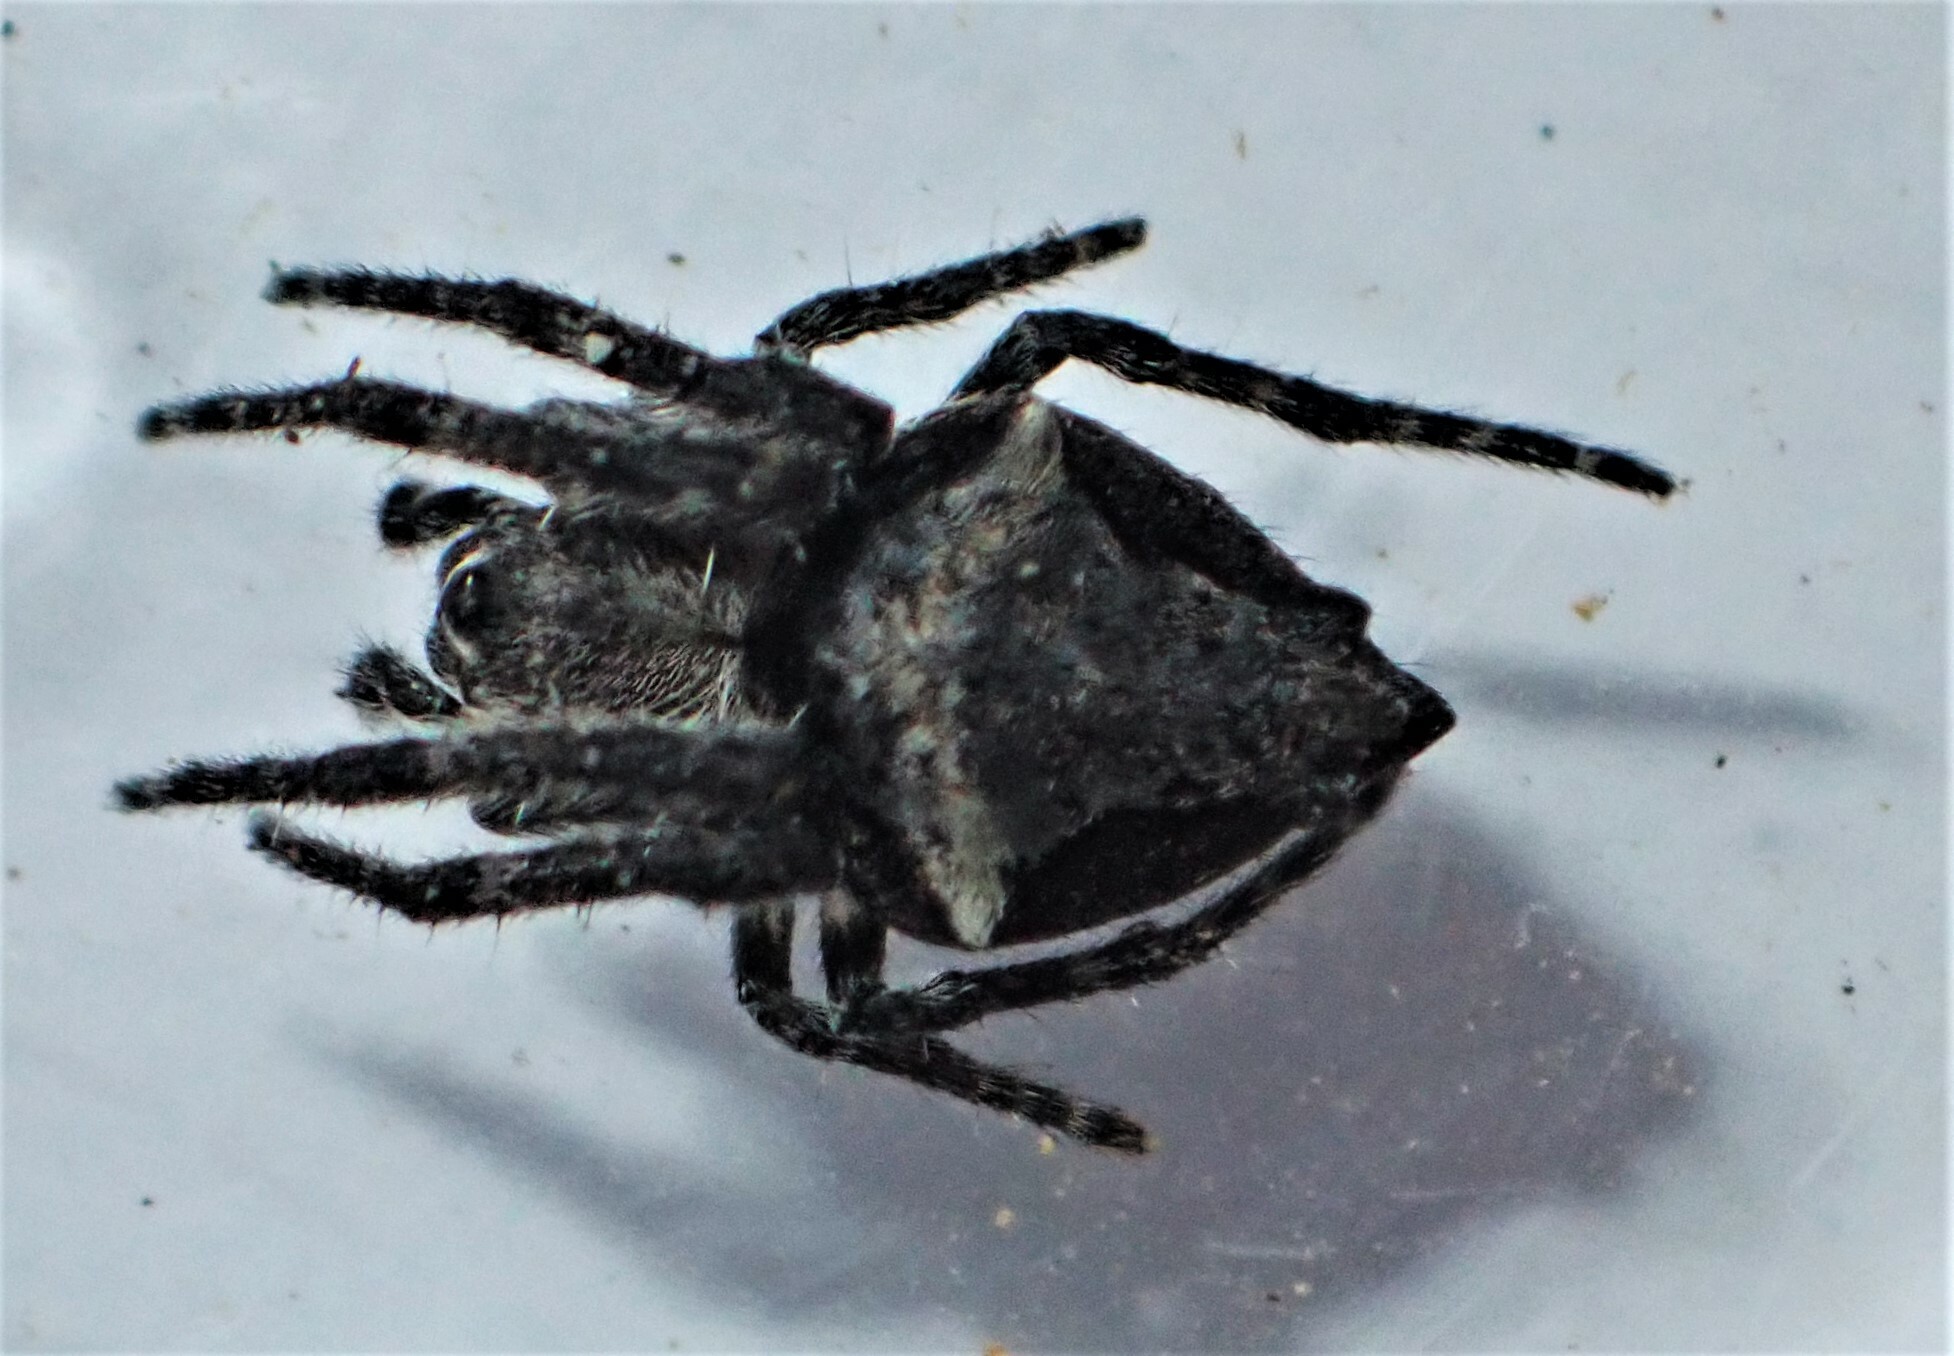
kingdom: Animalia
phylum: Arthropoda
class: Arachnida
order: Araneae
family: Araneidae
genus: Eriophora
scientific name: Eriophora pustulosa
